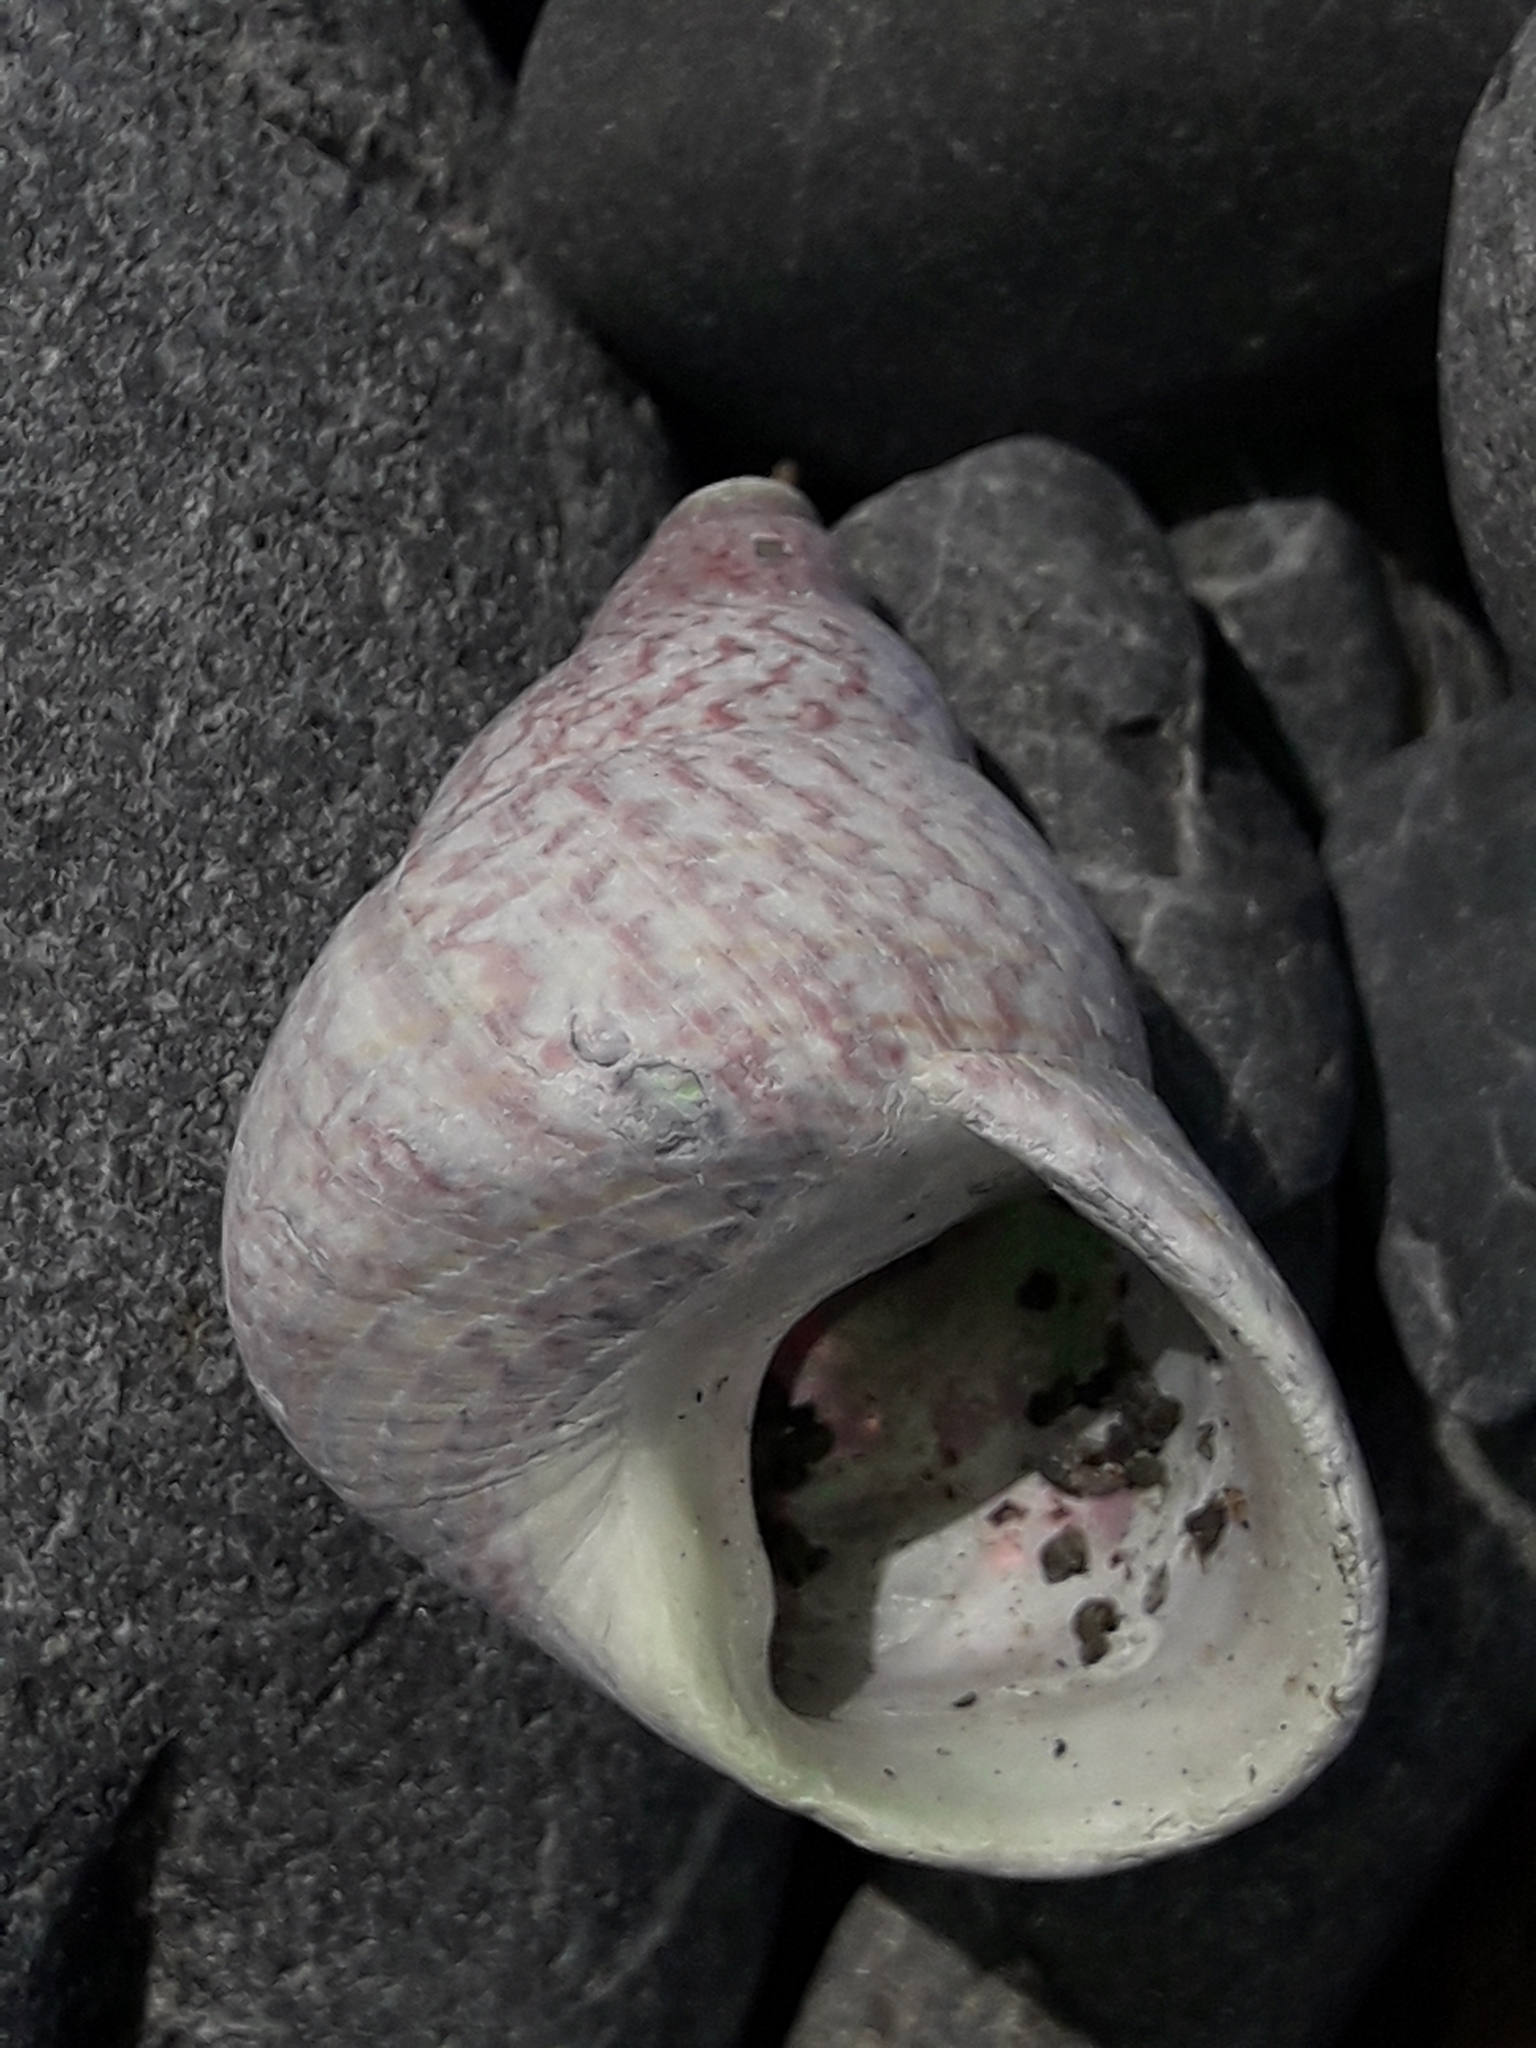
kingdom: Animalia
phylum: Mollusca
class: Gastropoda
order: Trochida
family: Trochidae
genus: Cantharidus
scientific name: Cantharidus opalus
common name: Opal jewel topsnail
